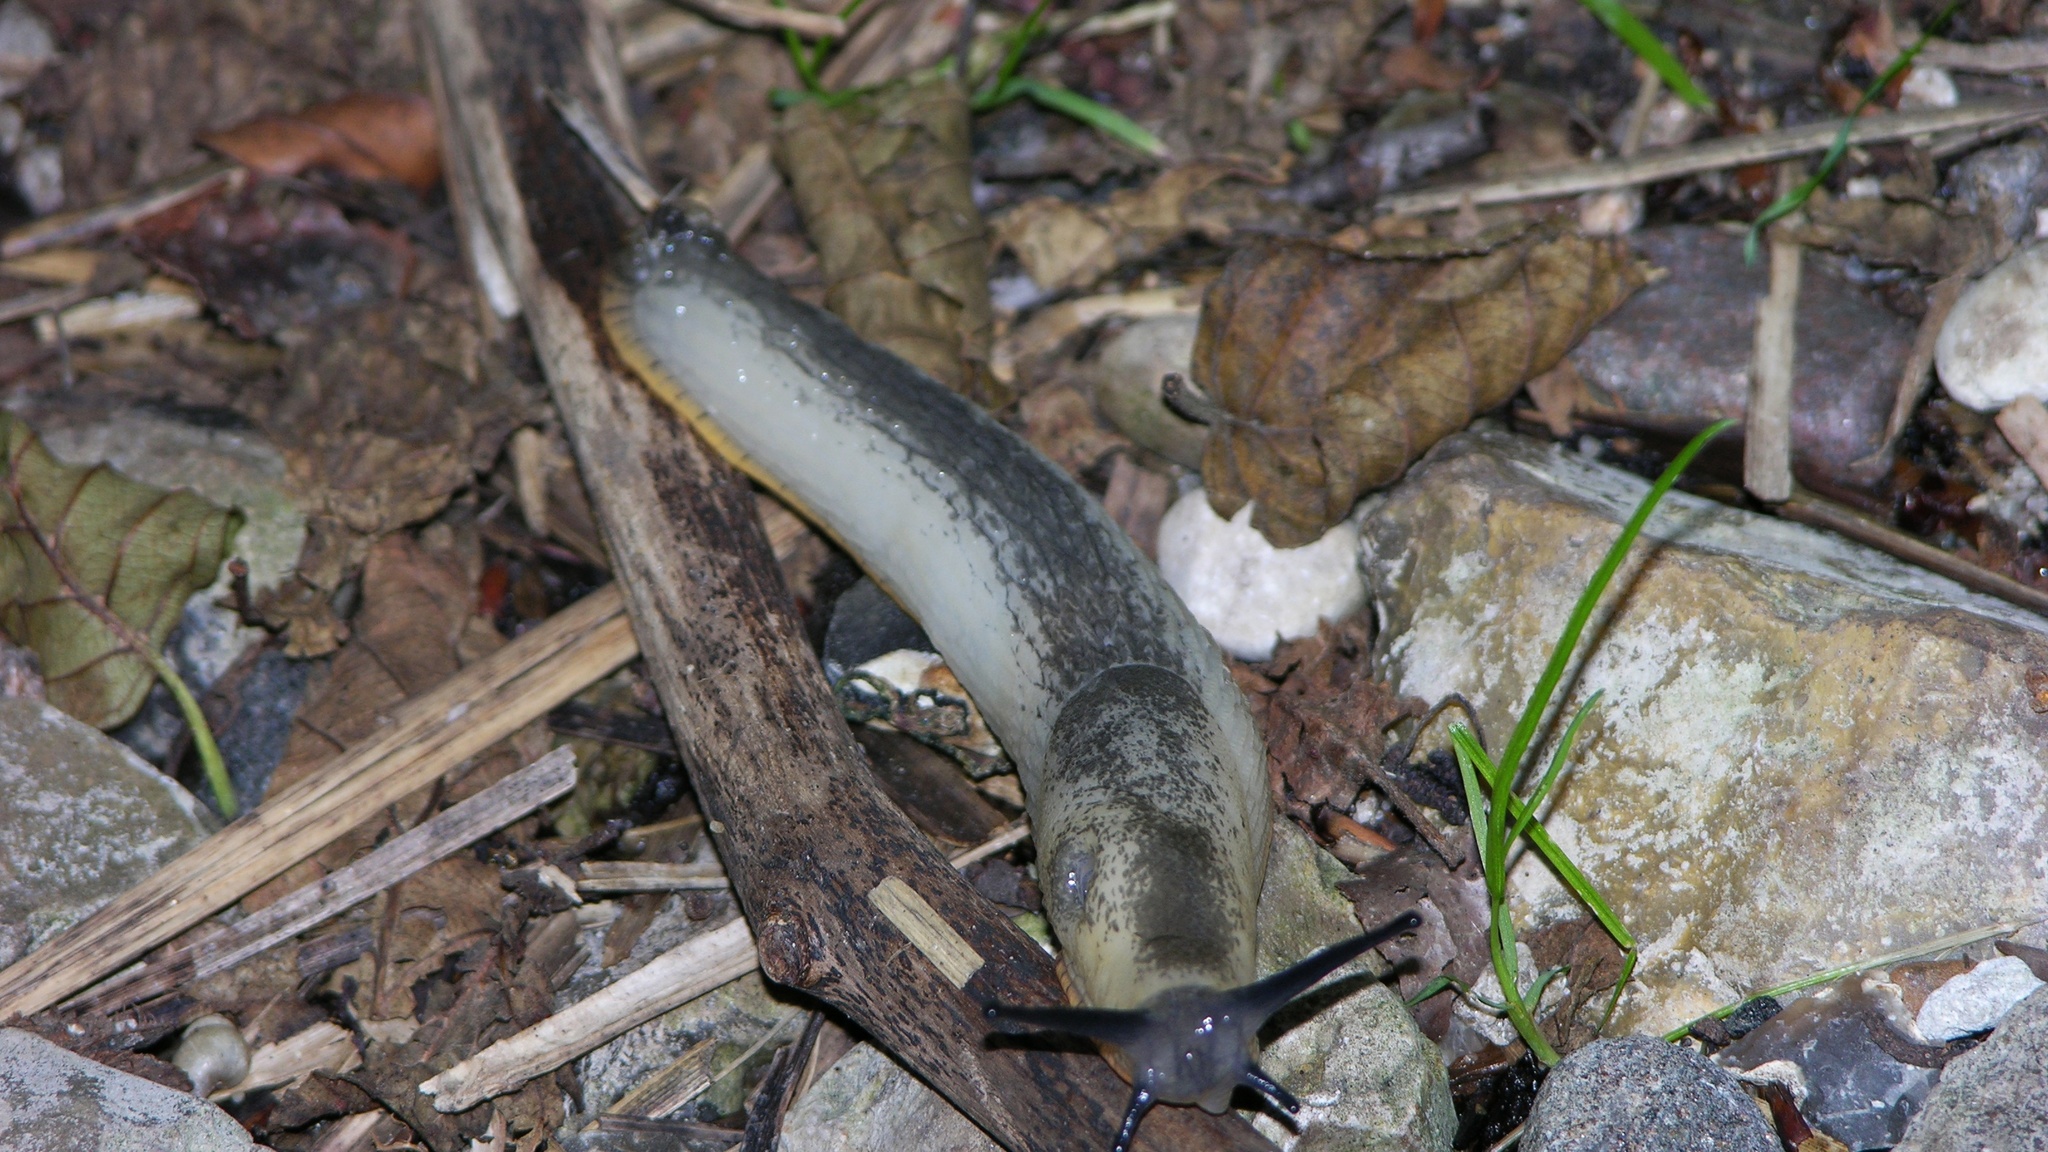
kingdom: Animalia
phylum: Mollusca
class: Gastropoda
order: Stylommatophora
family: Arionidae
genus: Arion
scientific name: Arion ater
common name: Black arion
